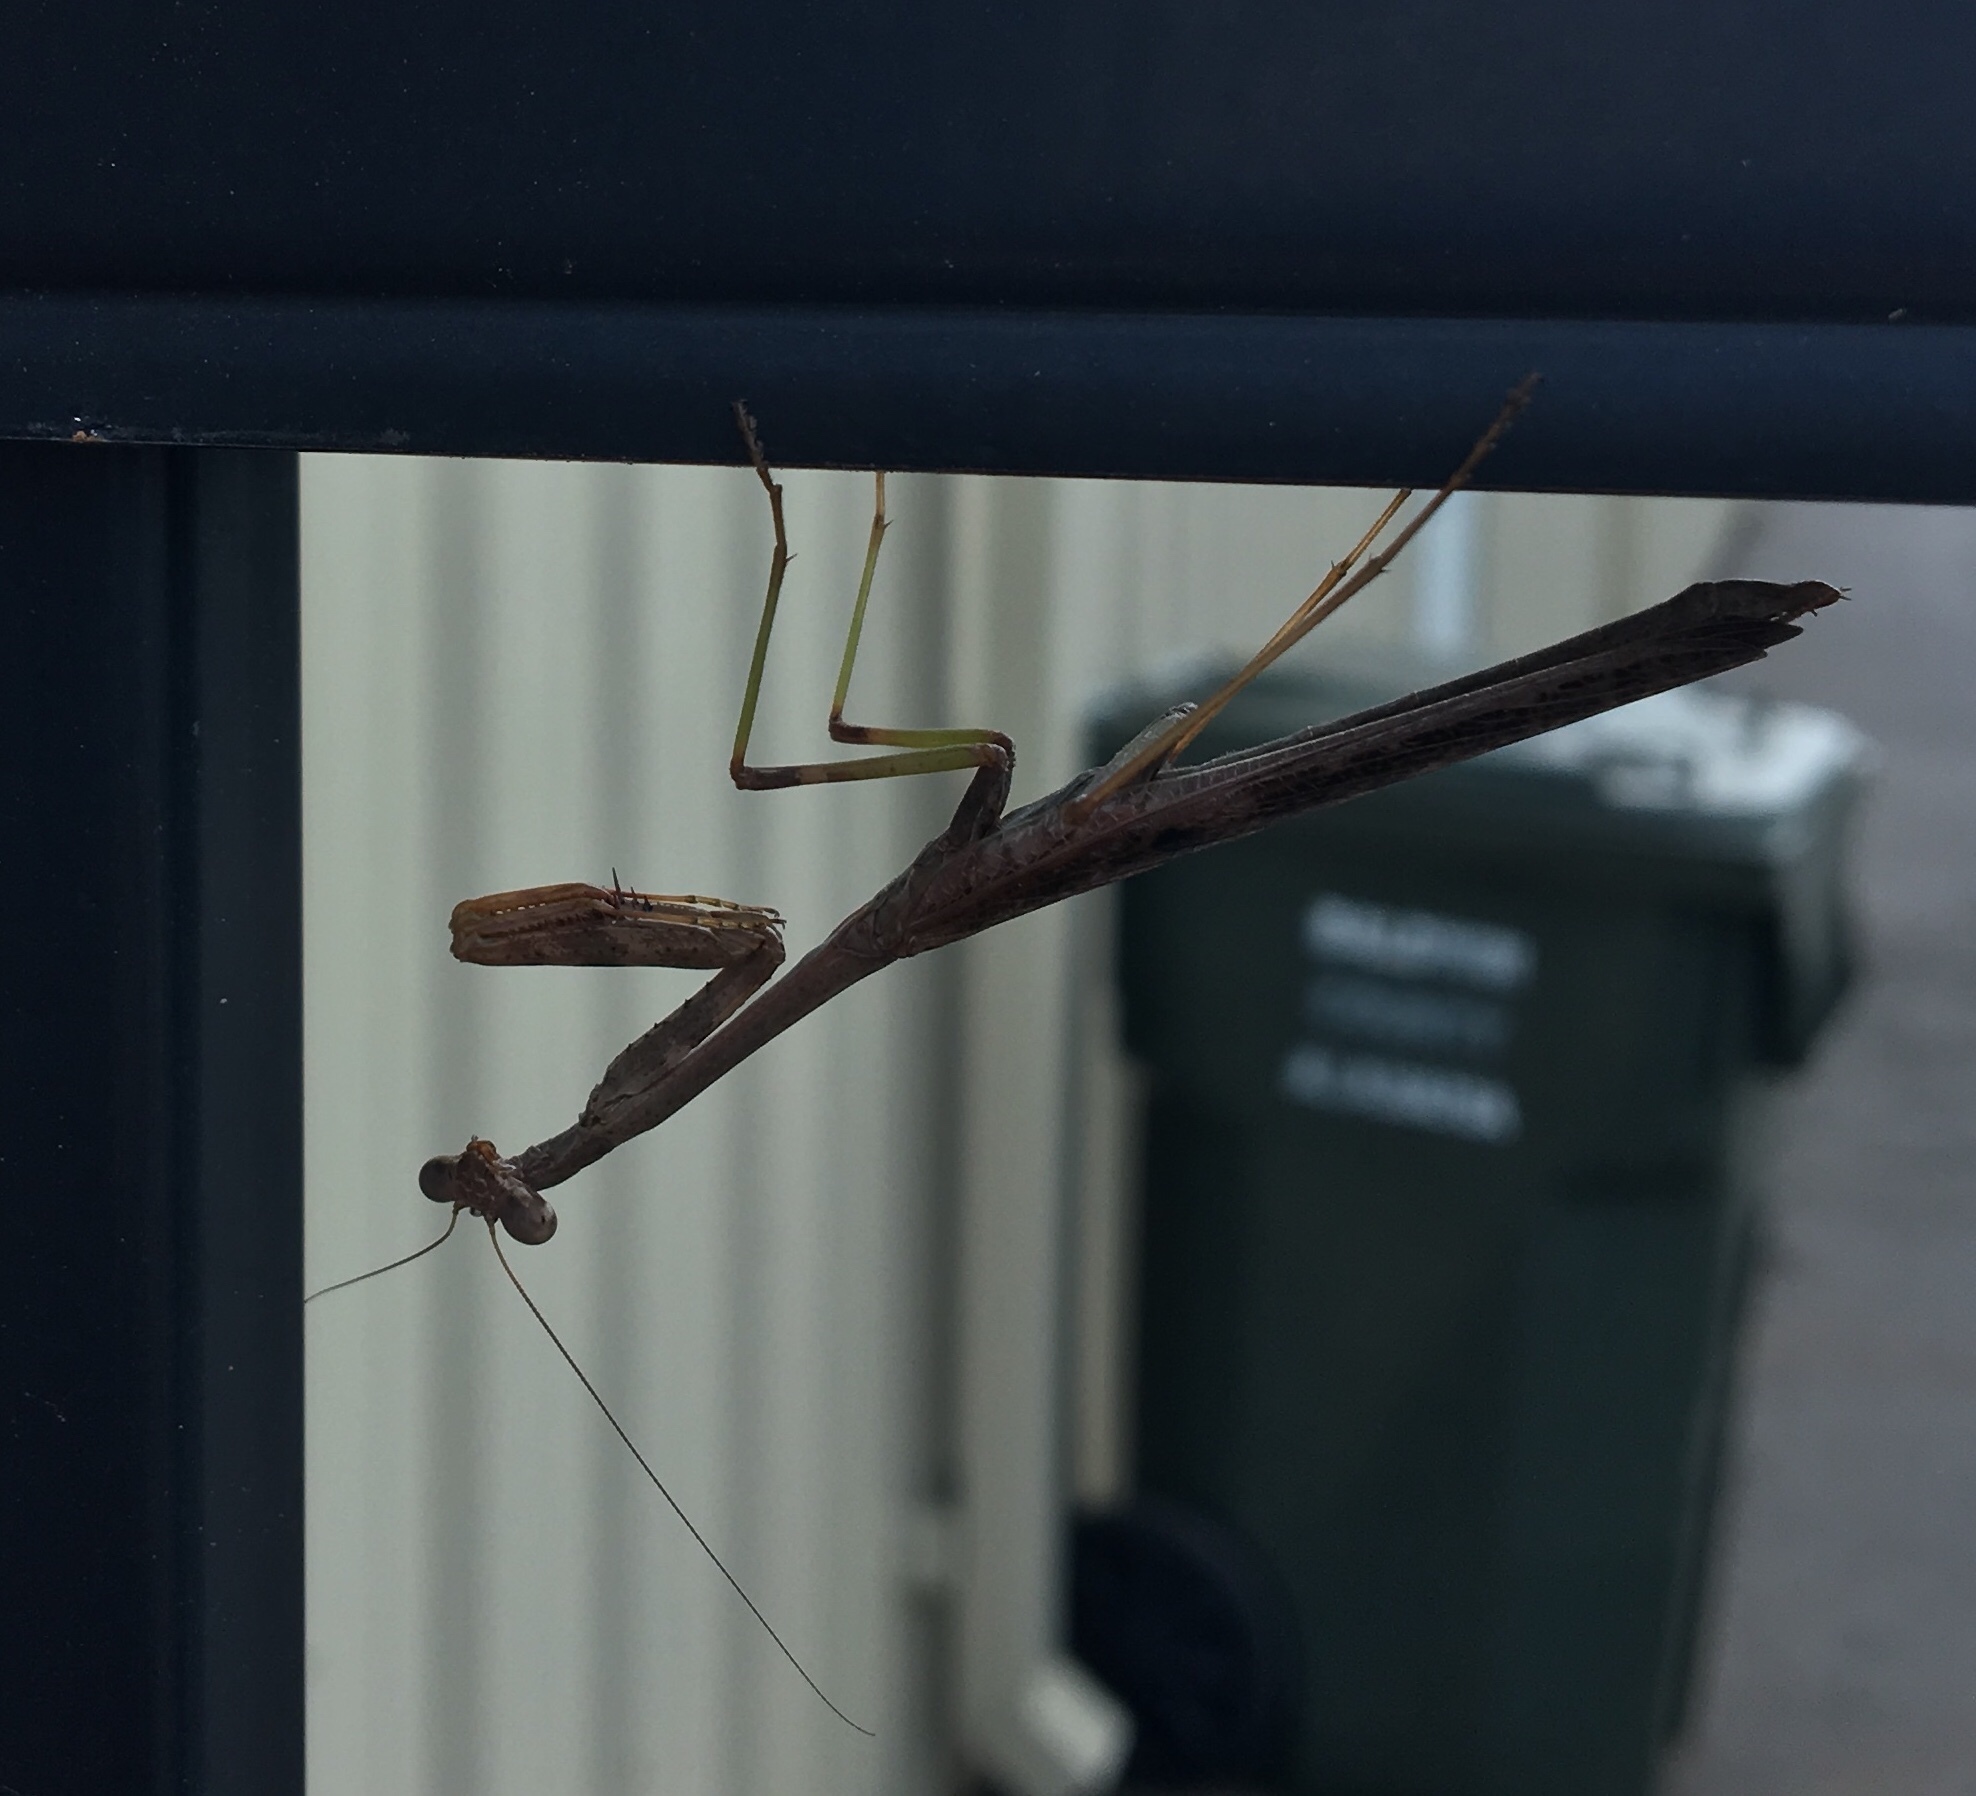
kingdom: Animalia
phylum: Arthropoda
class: Insecta
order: Mantodea
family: Mantidae
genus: Stagmomantis
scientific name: Stagmomantis carolina
